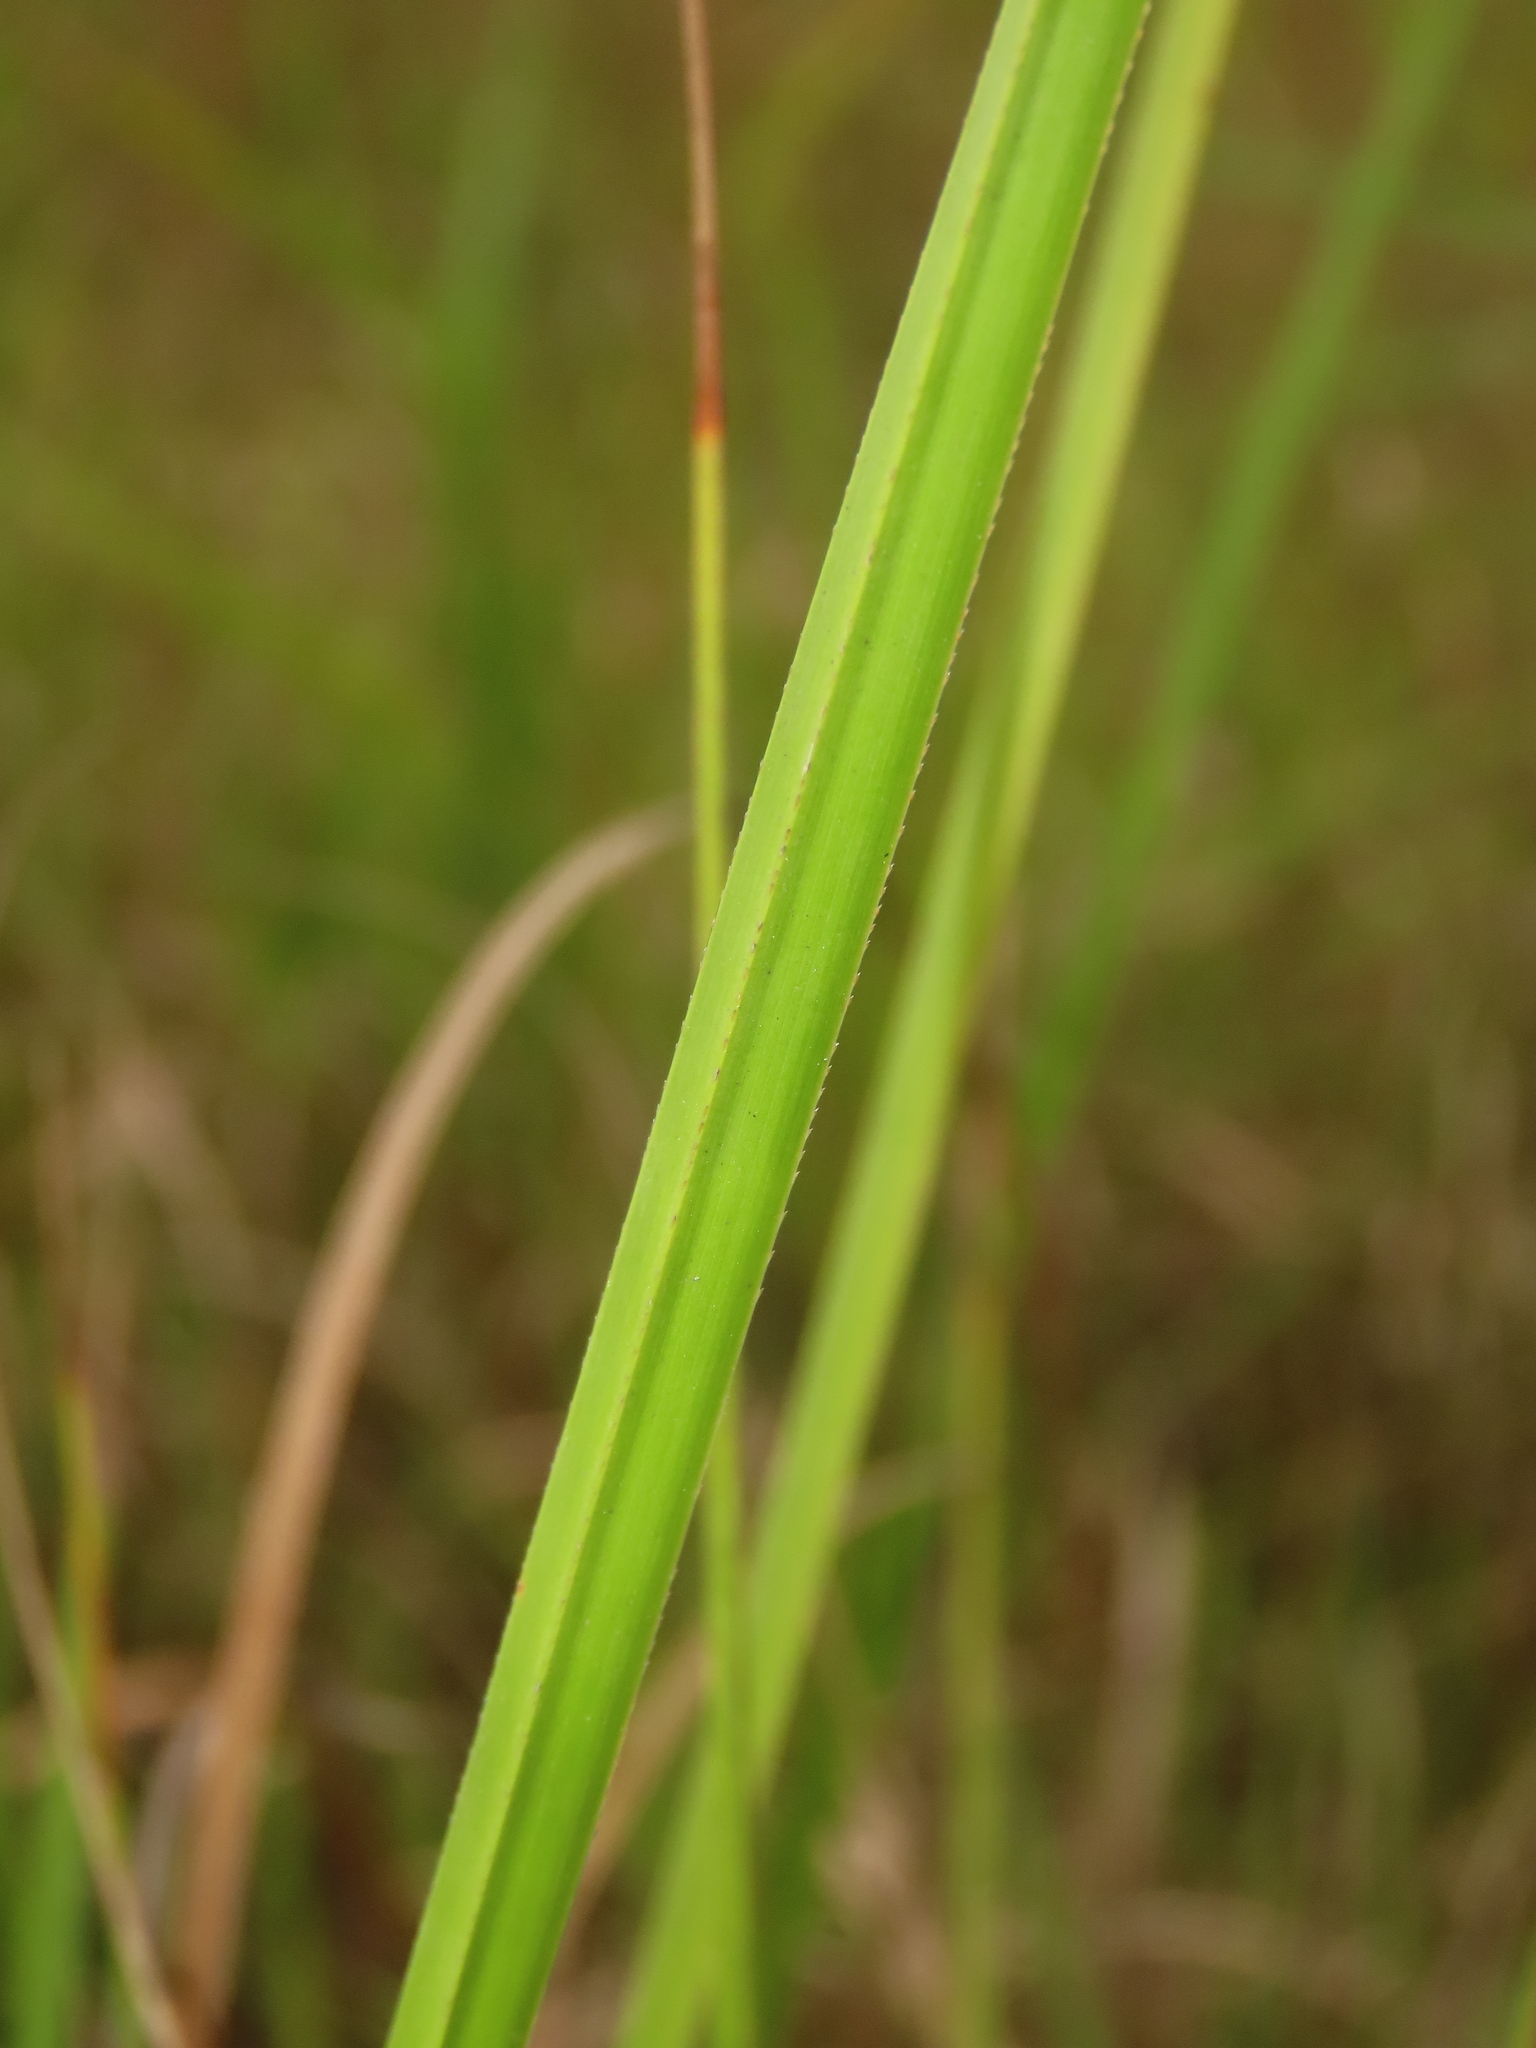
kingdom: Plantae
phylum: Tracheophyta
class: Liliopsida
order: Poales
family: Cyperaceae
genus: Cladium
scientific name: Cladium mariscus
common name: Great fen-sedge
